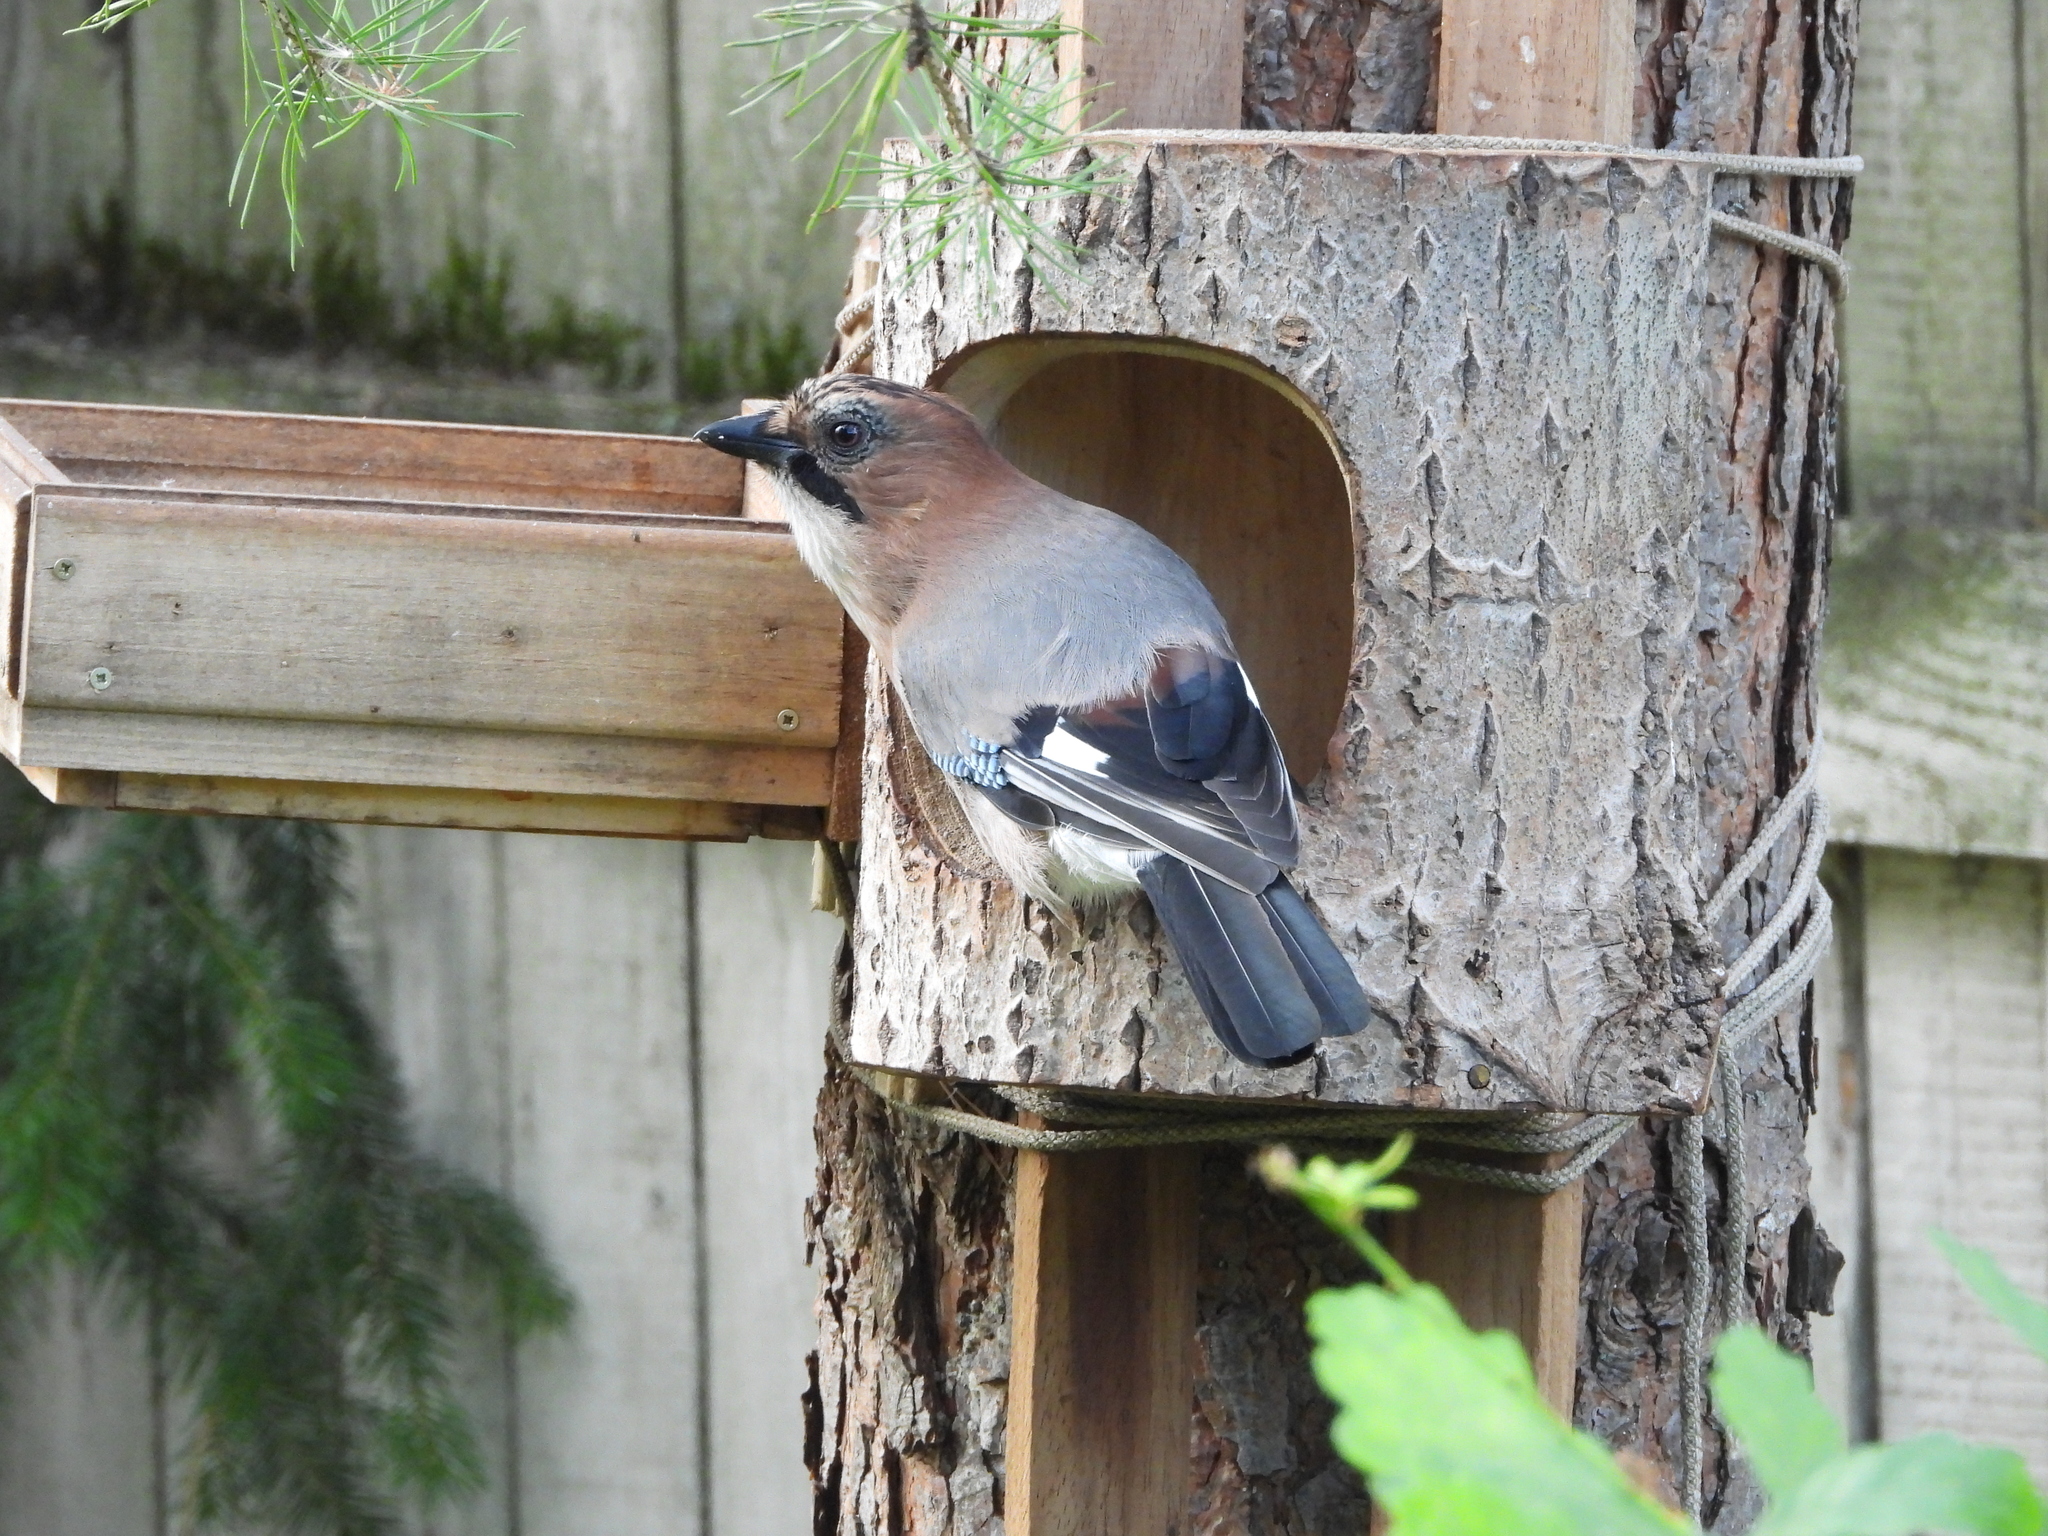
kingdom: Animalia
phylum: Chordata
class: Aves
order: Passeriformes
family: Corvidae
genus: Garrulus
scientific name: Garrulus glandarius
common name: Eurasian jay
